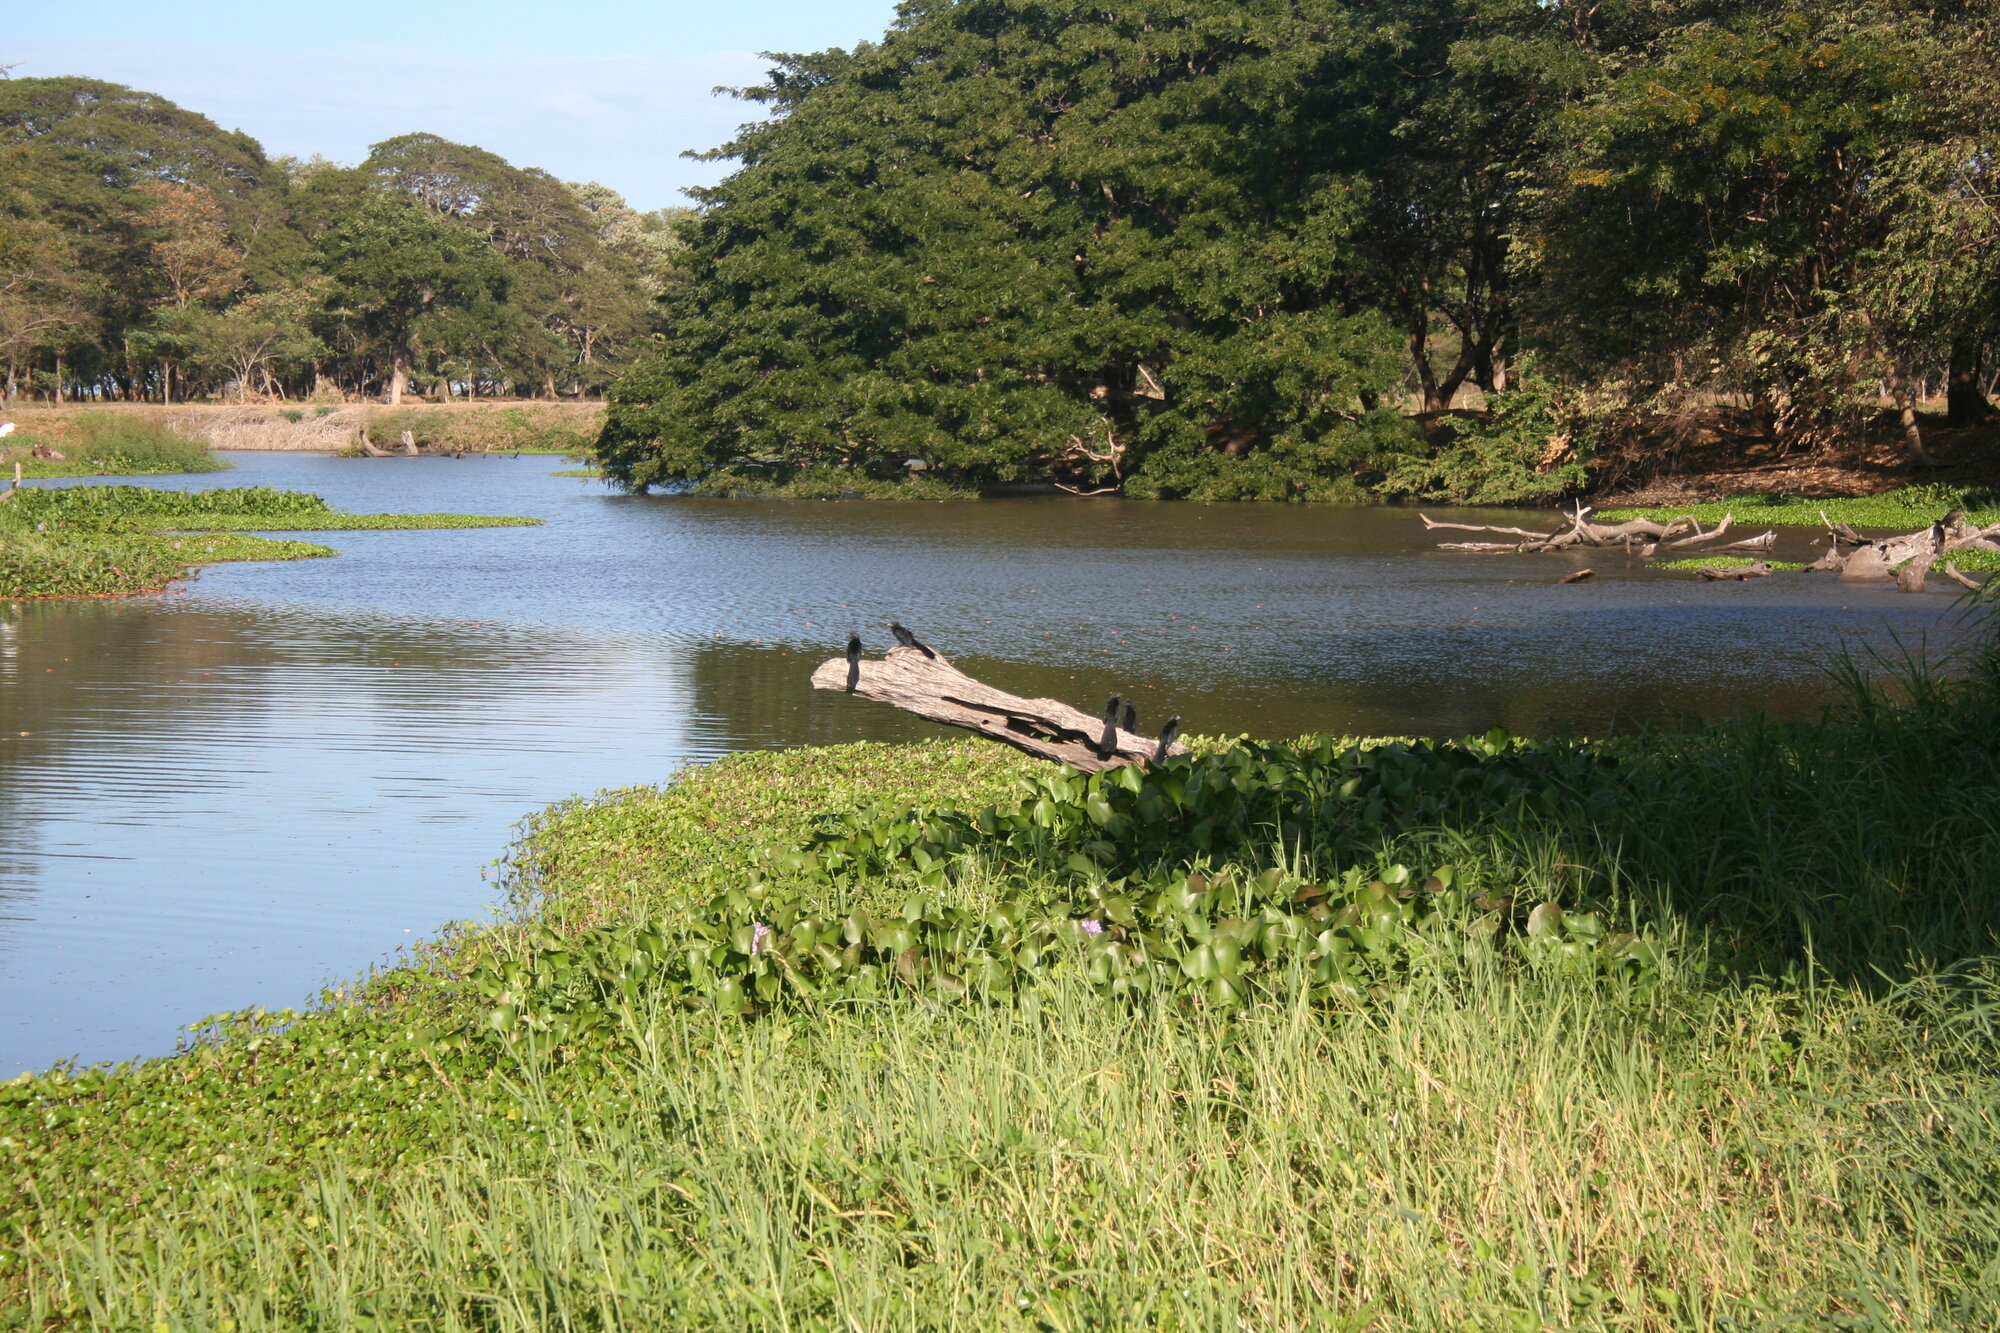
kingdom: Animalia
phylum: Chordata
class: Aves
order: Cuculiformes
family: Cuculidae
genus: Crotophaga
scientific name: Crotophaga sulcirostris
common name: Groove-billed ani
